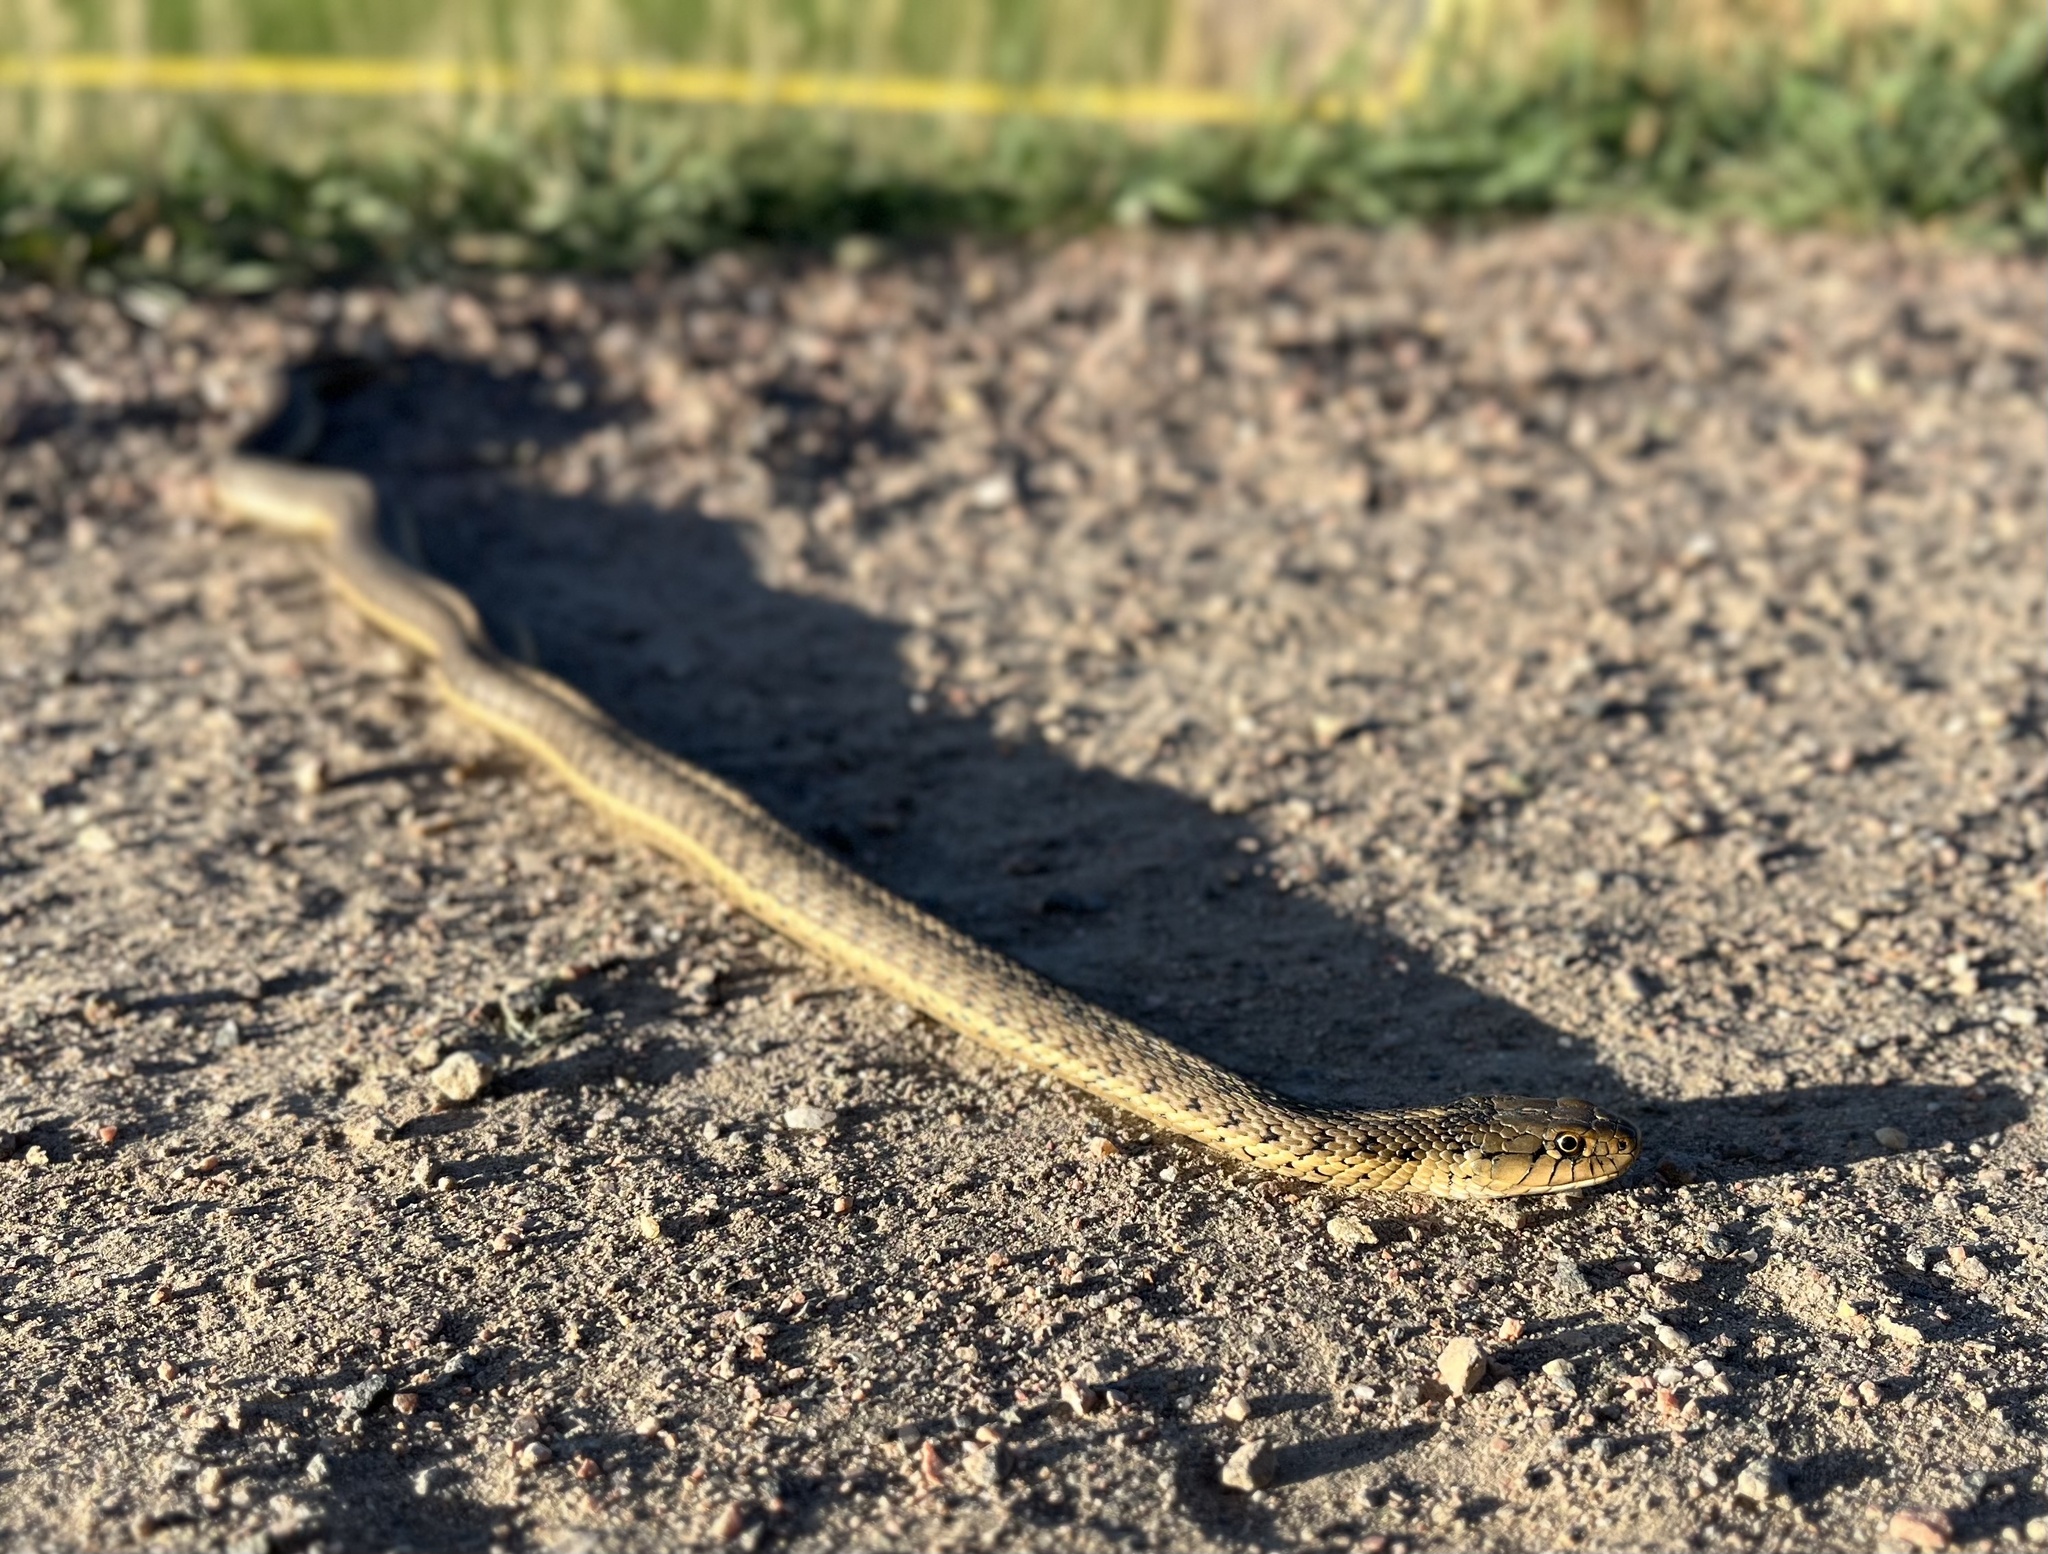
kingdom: Animalia
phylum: Chordata
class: Squamata
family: Colubridae
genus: Thamnophis
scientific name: Thamnophis elegans
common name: Western terrestrial garter snake
